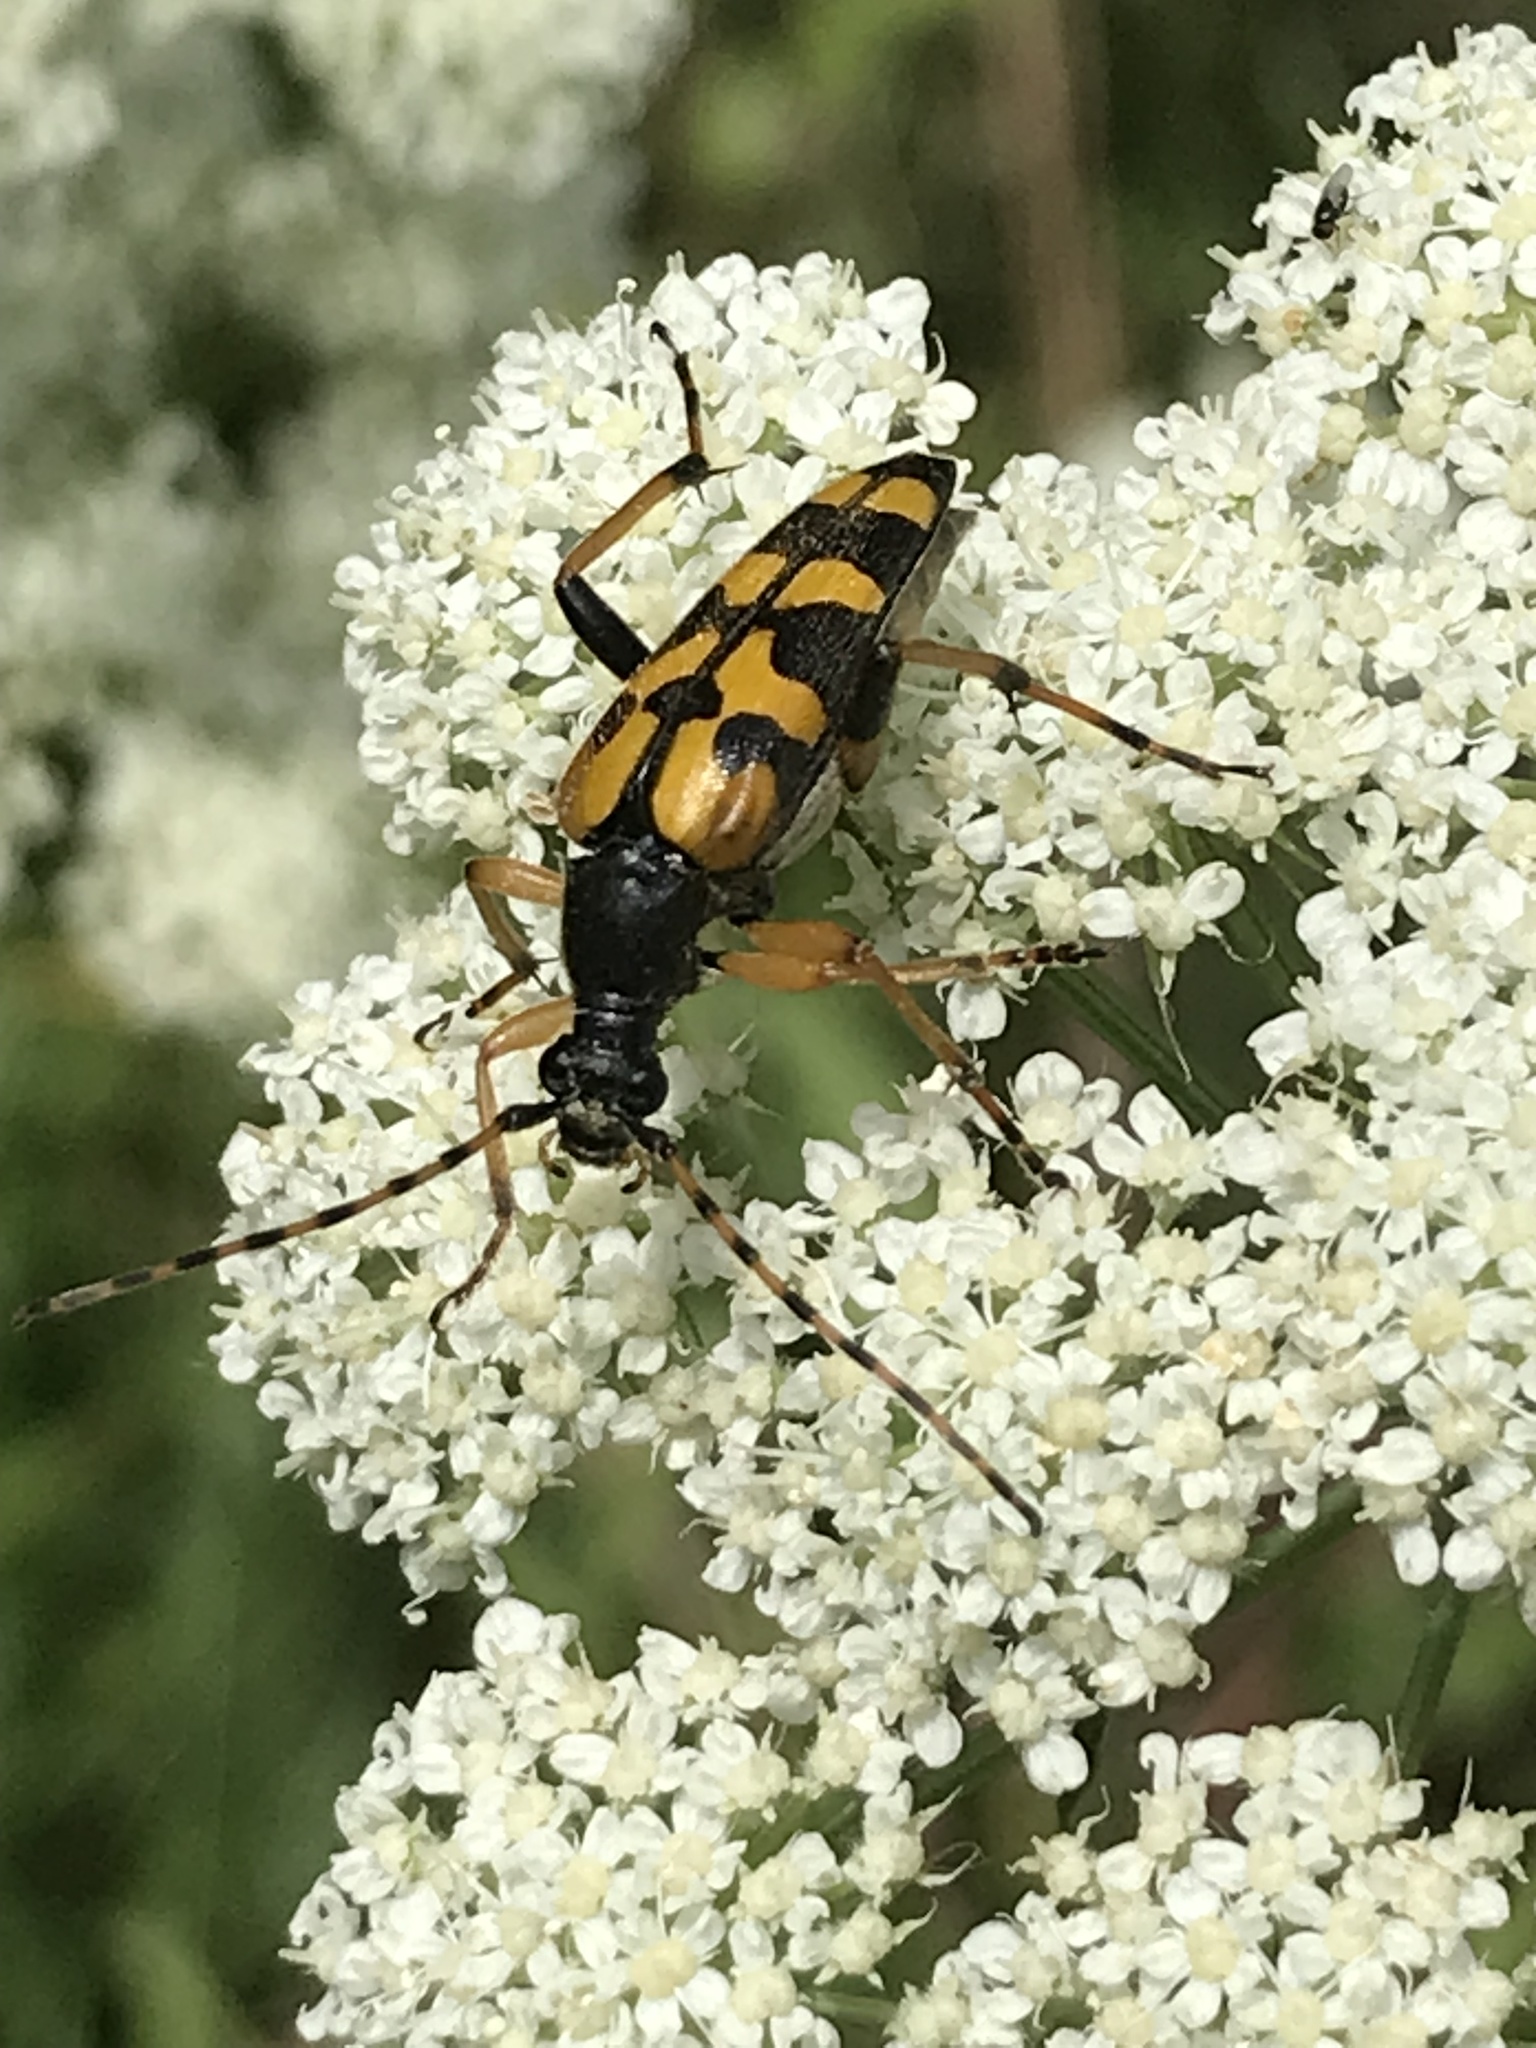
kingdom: Animalia
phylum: Arthropoda
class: Insecta
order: Coleoptera
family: Cerambycidae
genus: Rutpela
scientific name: Rutpela maculata
